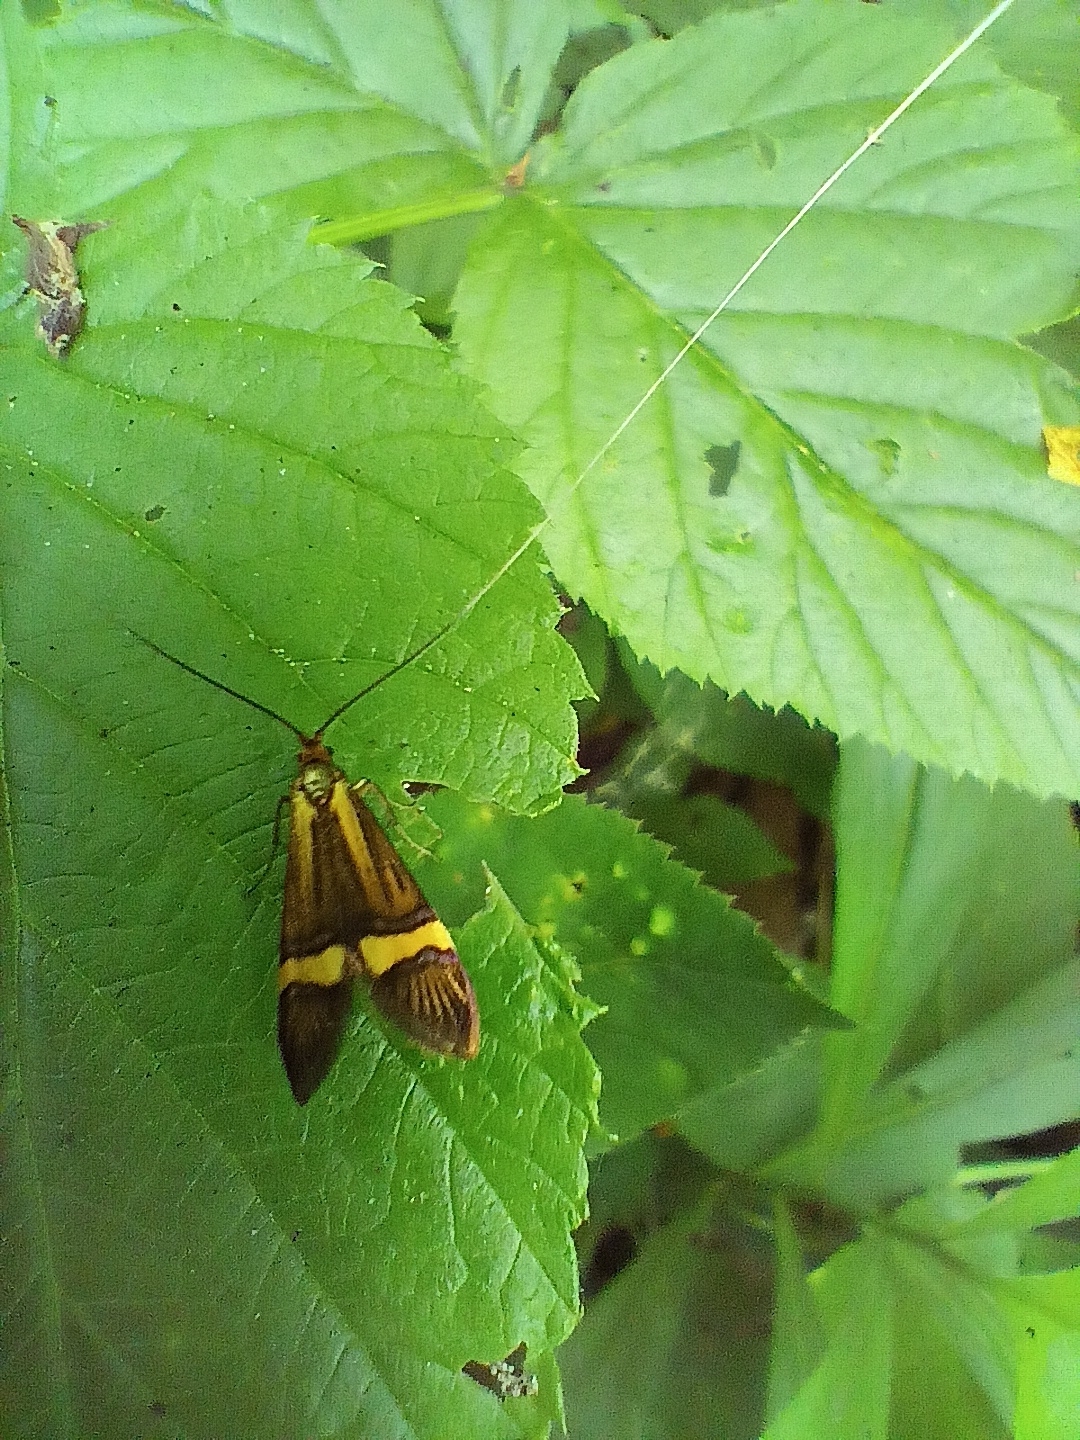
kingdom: Animalia
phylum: Arthropoda
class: Insecta
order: Lepidoptera
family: Adelidae
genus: Nemophora
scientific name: Nemophora degeerella
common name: Yellow-barred long-horn
